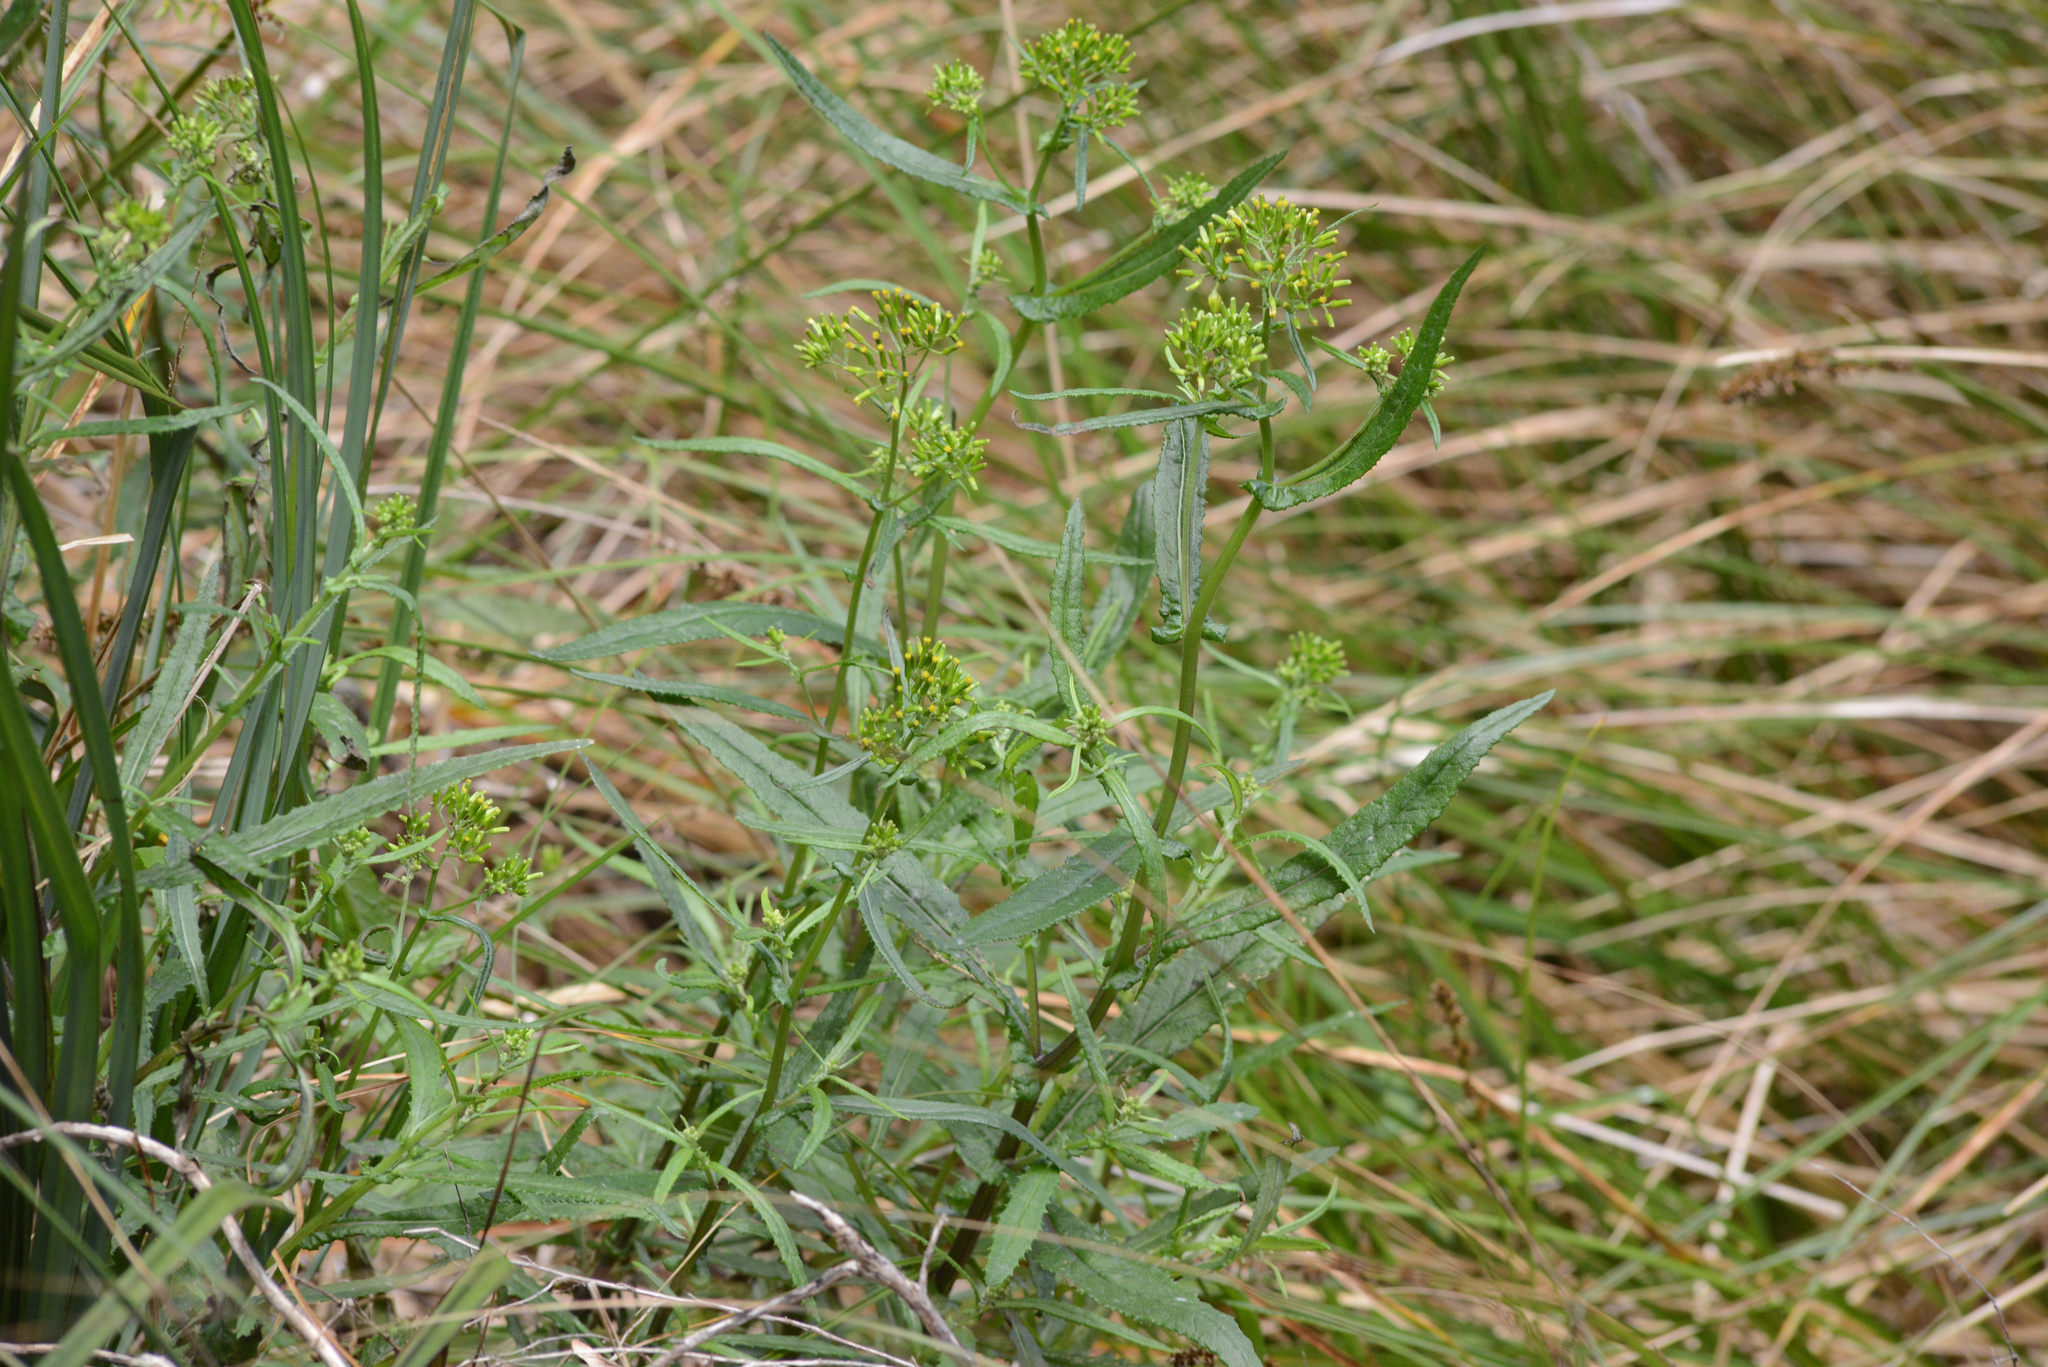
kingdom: Plantae
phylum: Tracheophyta
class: Magnoliopsida
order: Asterales
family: Asteraceae
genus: Senecio
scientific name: Senecio minimus
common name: Toothed fireweed
